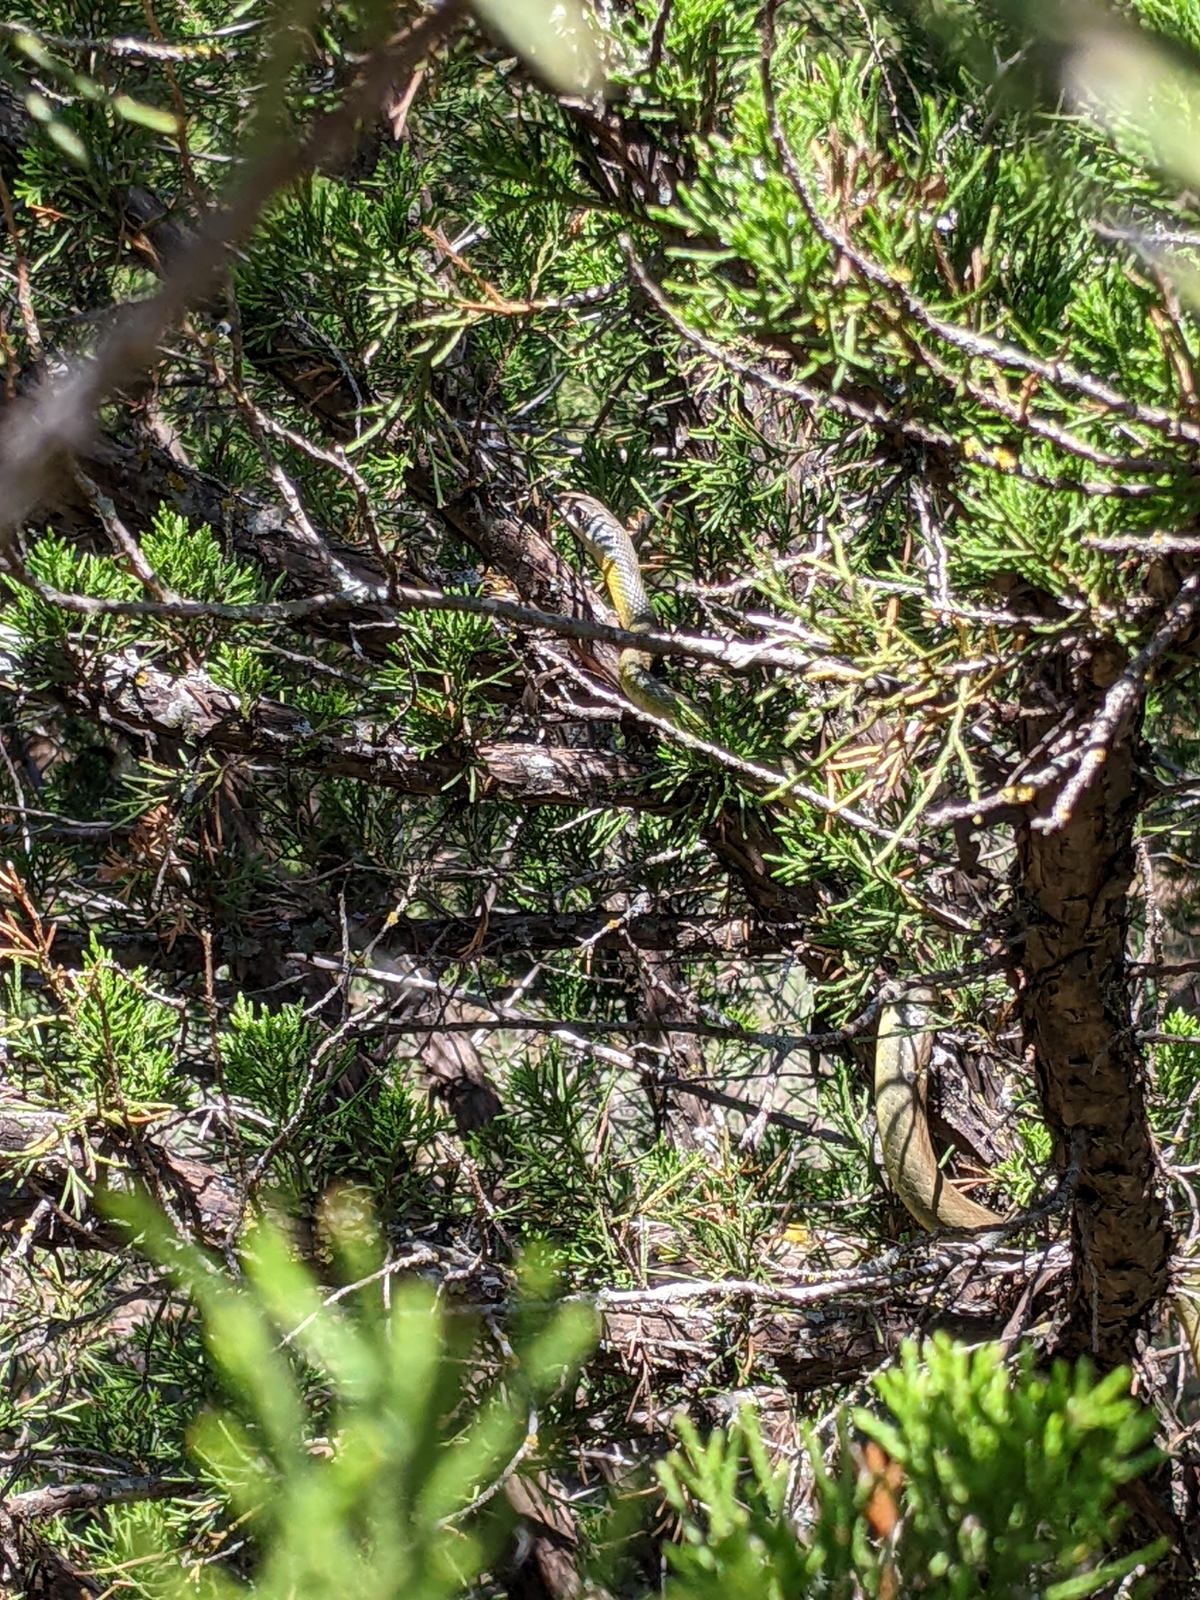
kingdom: Animalia
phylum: Chordata
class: Squamata
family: Colubridae
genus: Coluber
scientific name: Coluber constrictor
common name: Eastern racer
